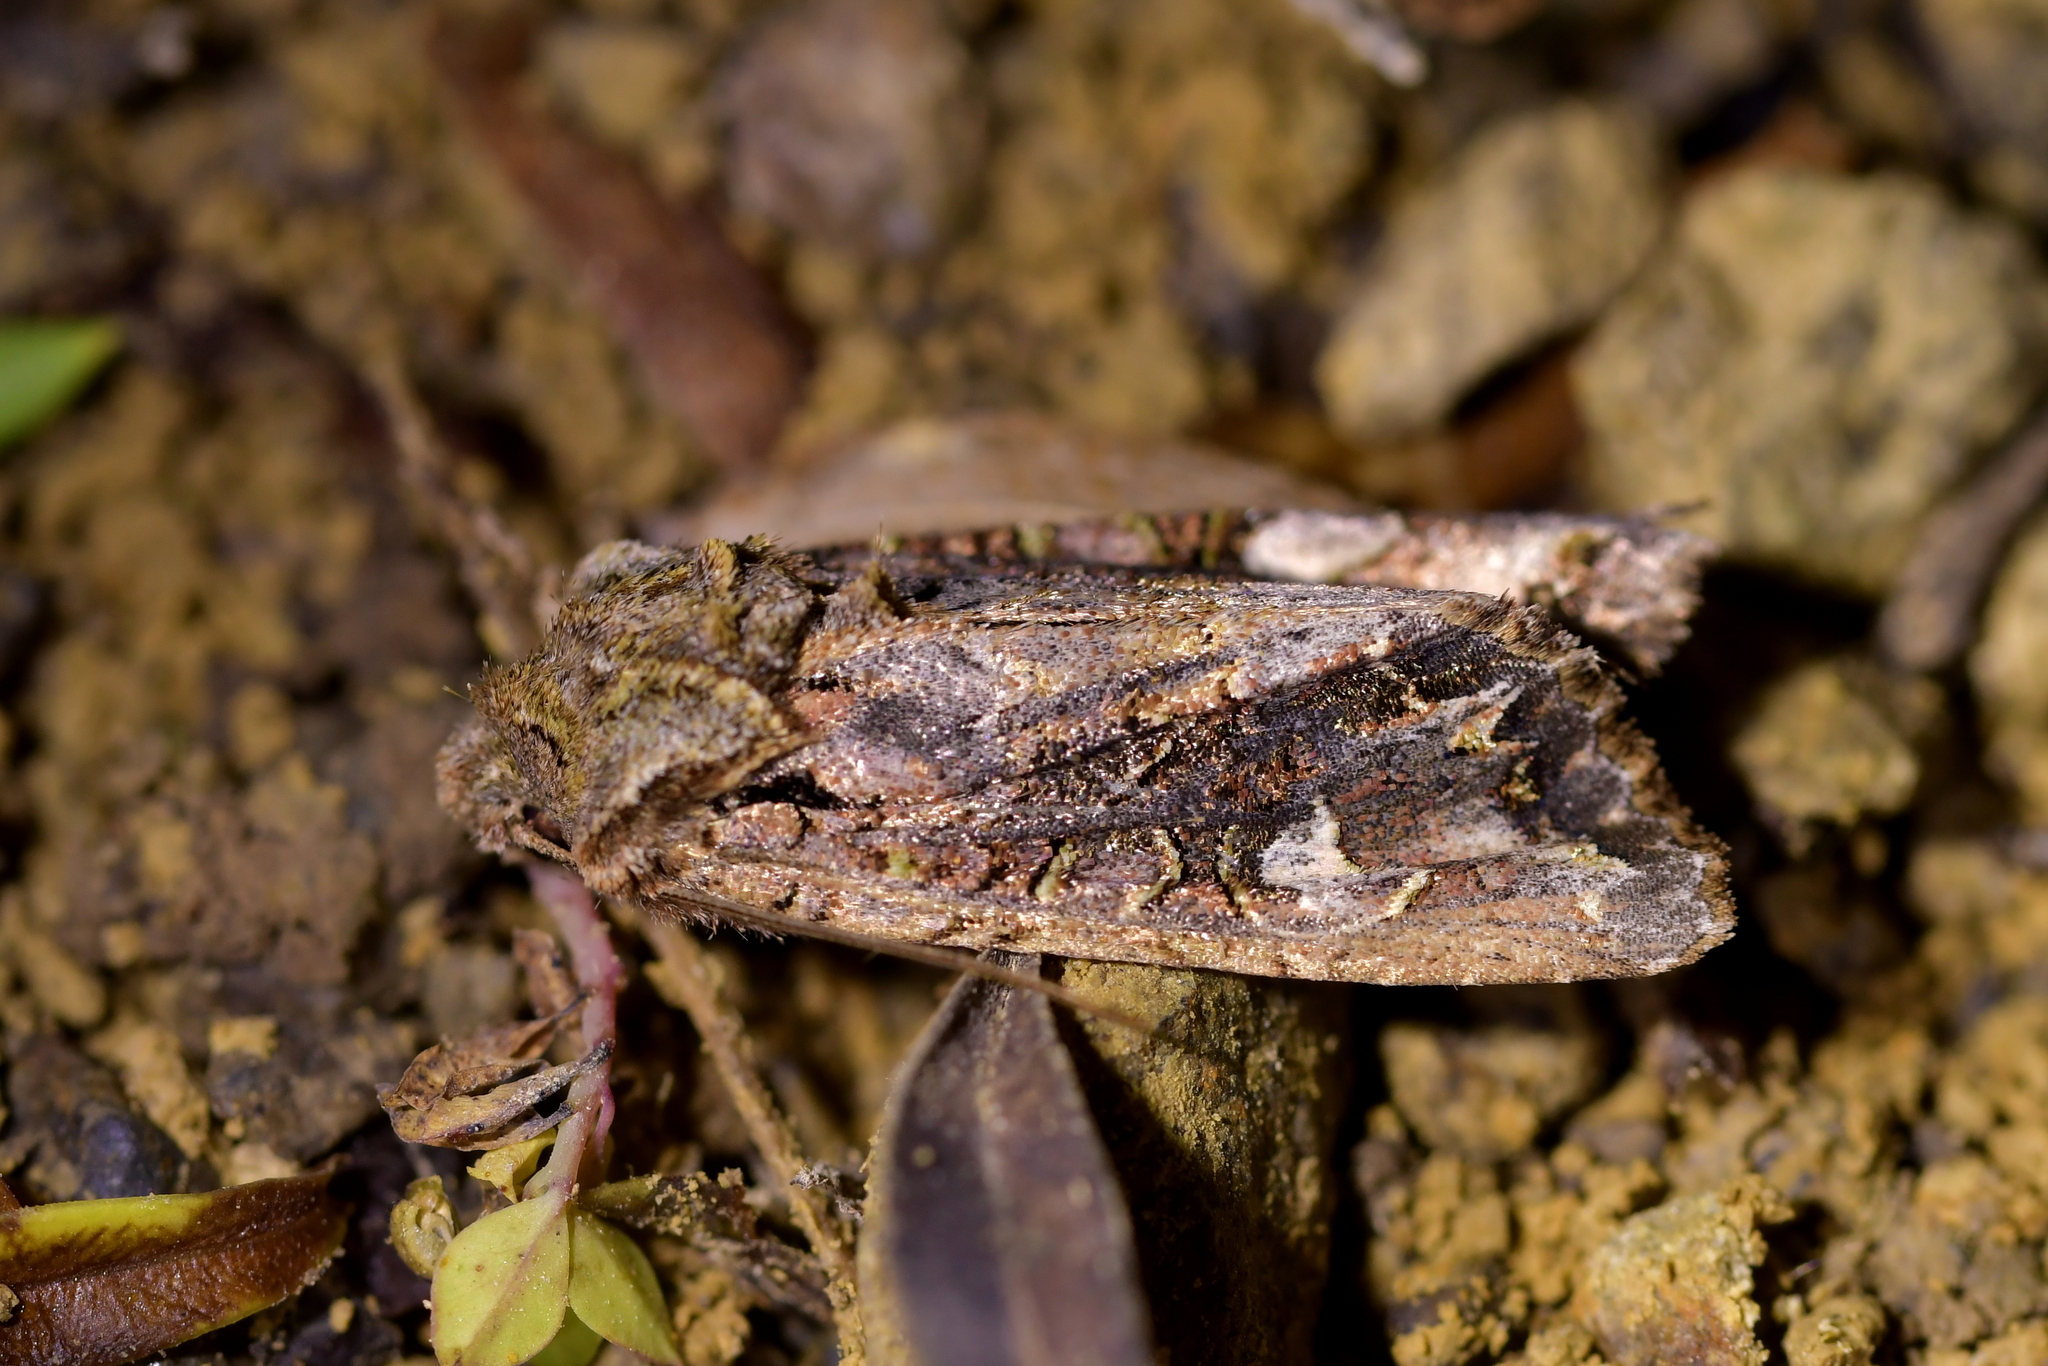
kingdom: Animalia
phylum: Arthropoda
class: Insecta
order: Lepidoptera
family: Noctuidae
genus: Ichneutica
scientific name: Ichneutica insignis
